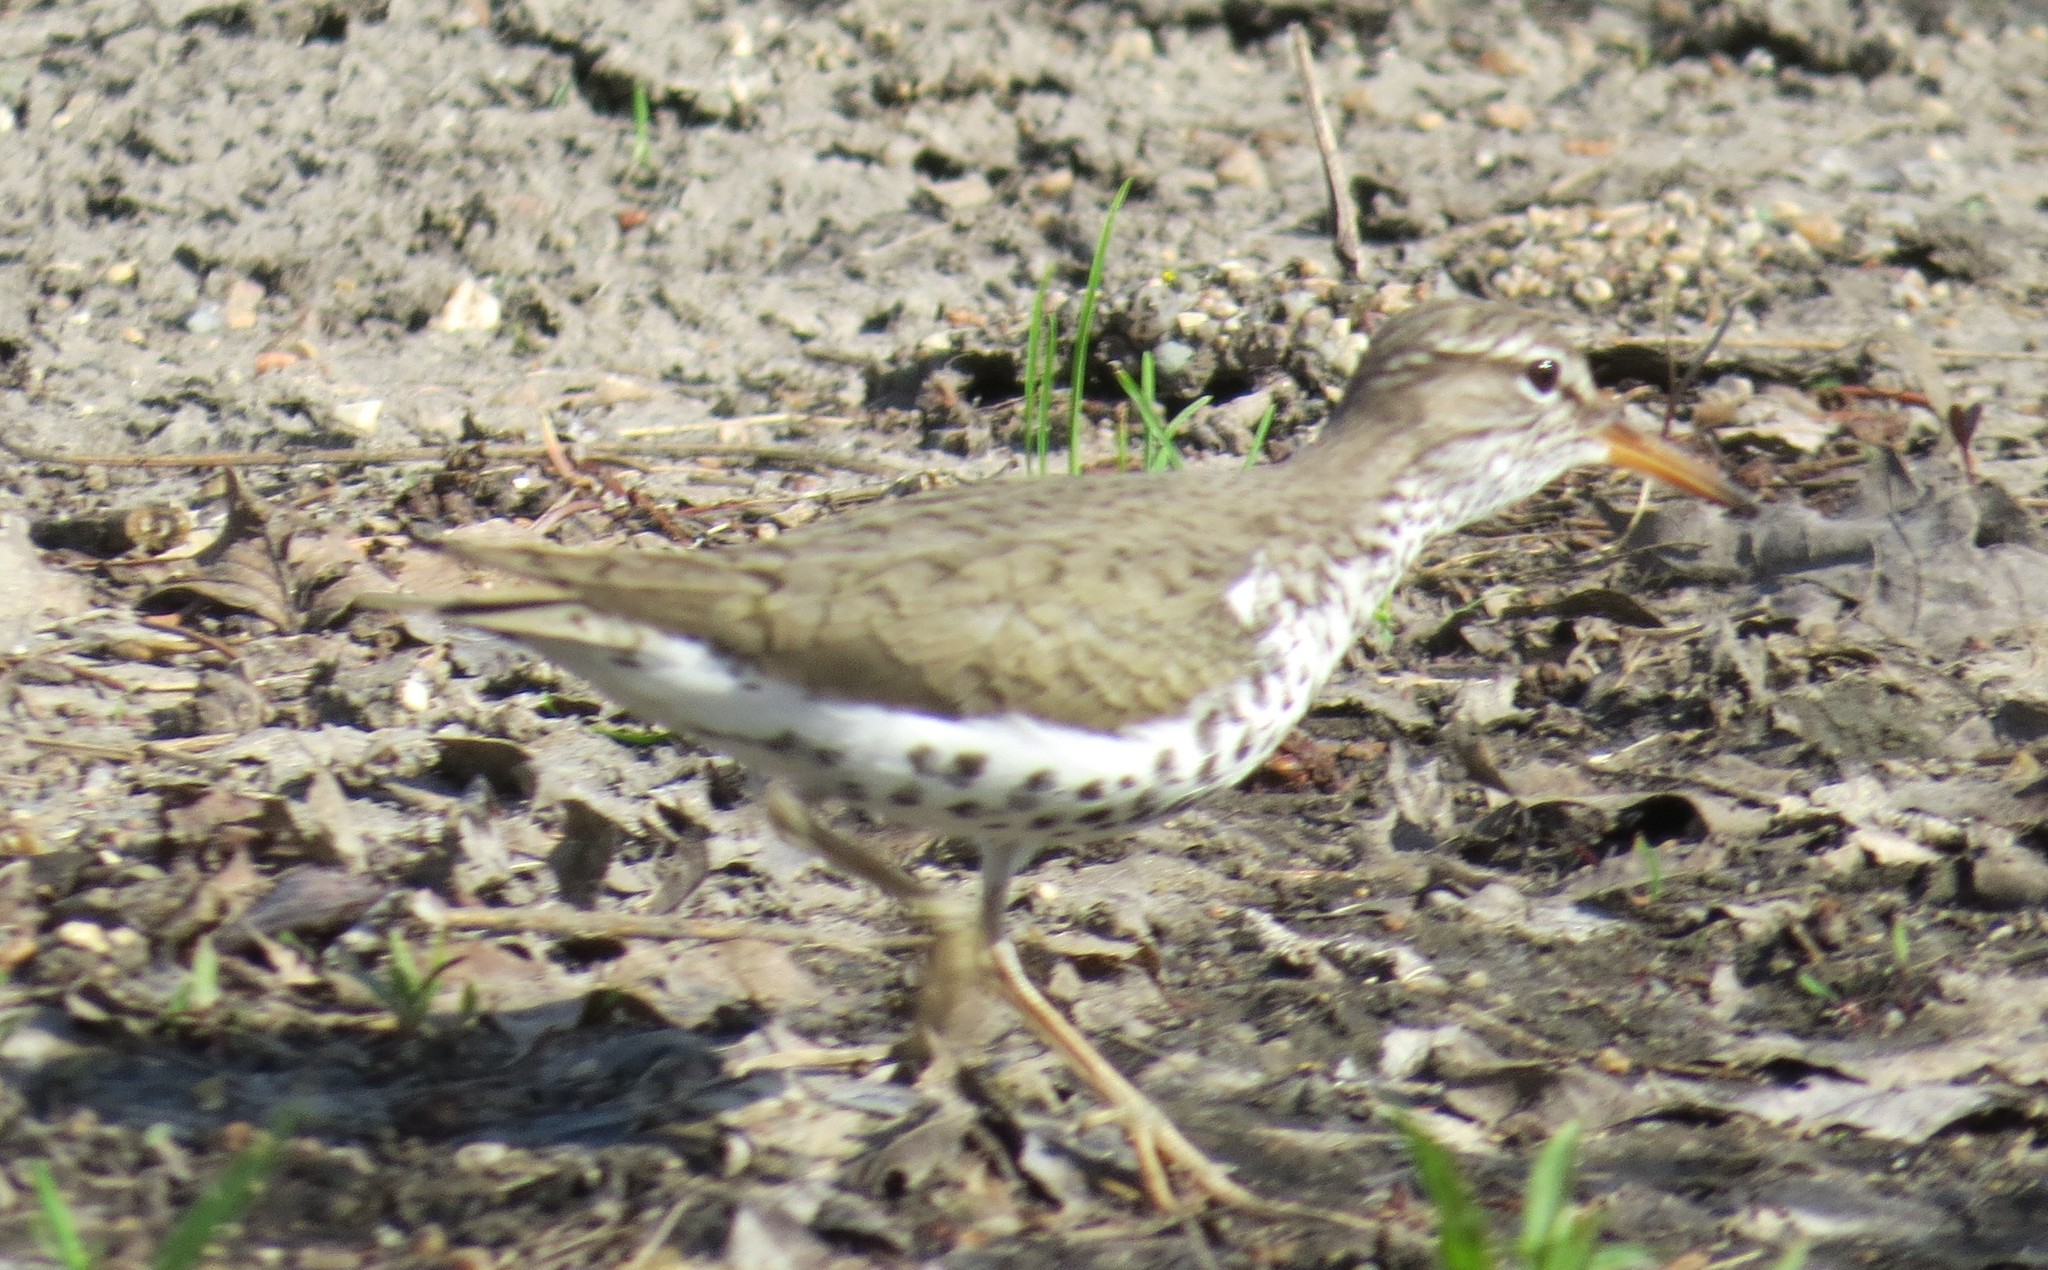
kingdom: Animalia
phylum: Chordata
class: Aves
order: Charadriiformes
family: Scolopacidae
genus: Actitis
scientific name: Actitis macularius
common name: Spotted sandpiper
